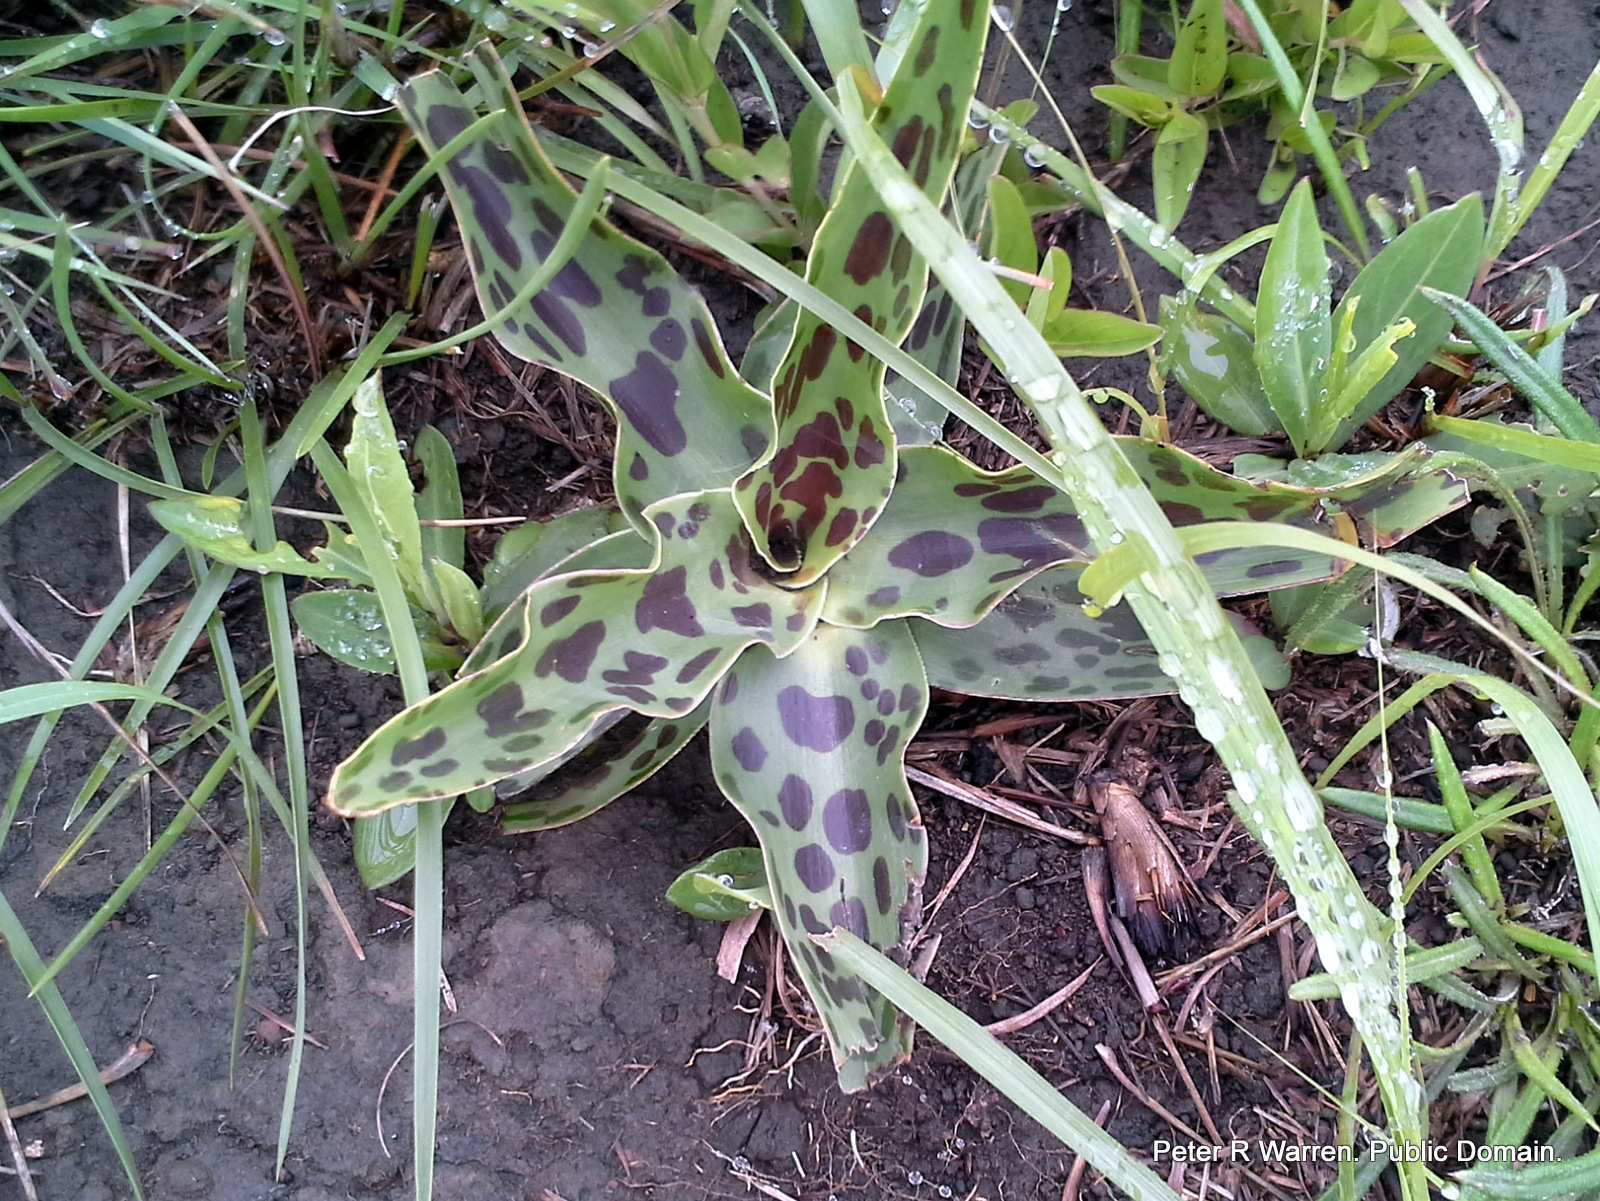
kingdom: Plantae
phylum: Tracheophyta
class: Liliopsida
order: Asparagales
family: Asparagaceae
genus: Ledebouria
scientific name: Ledebouria revoluta
